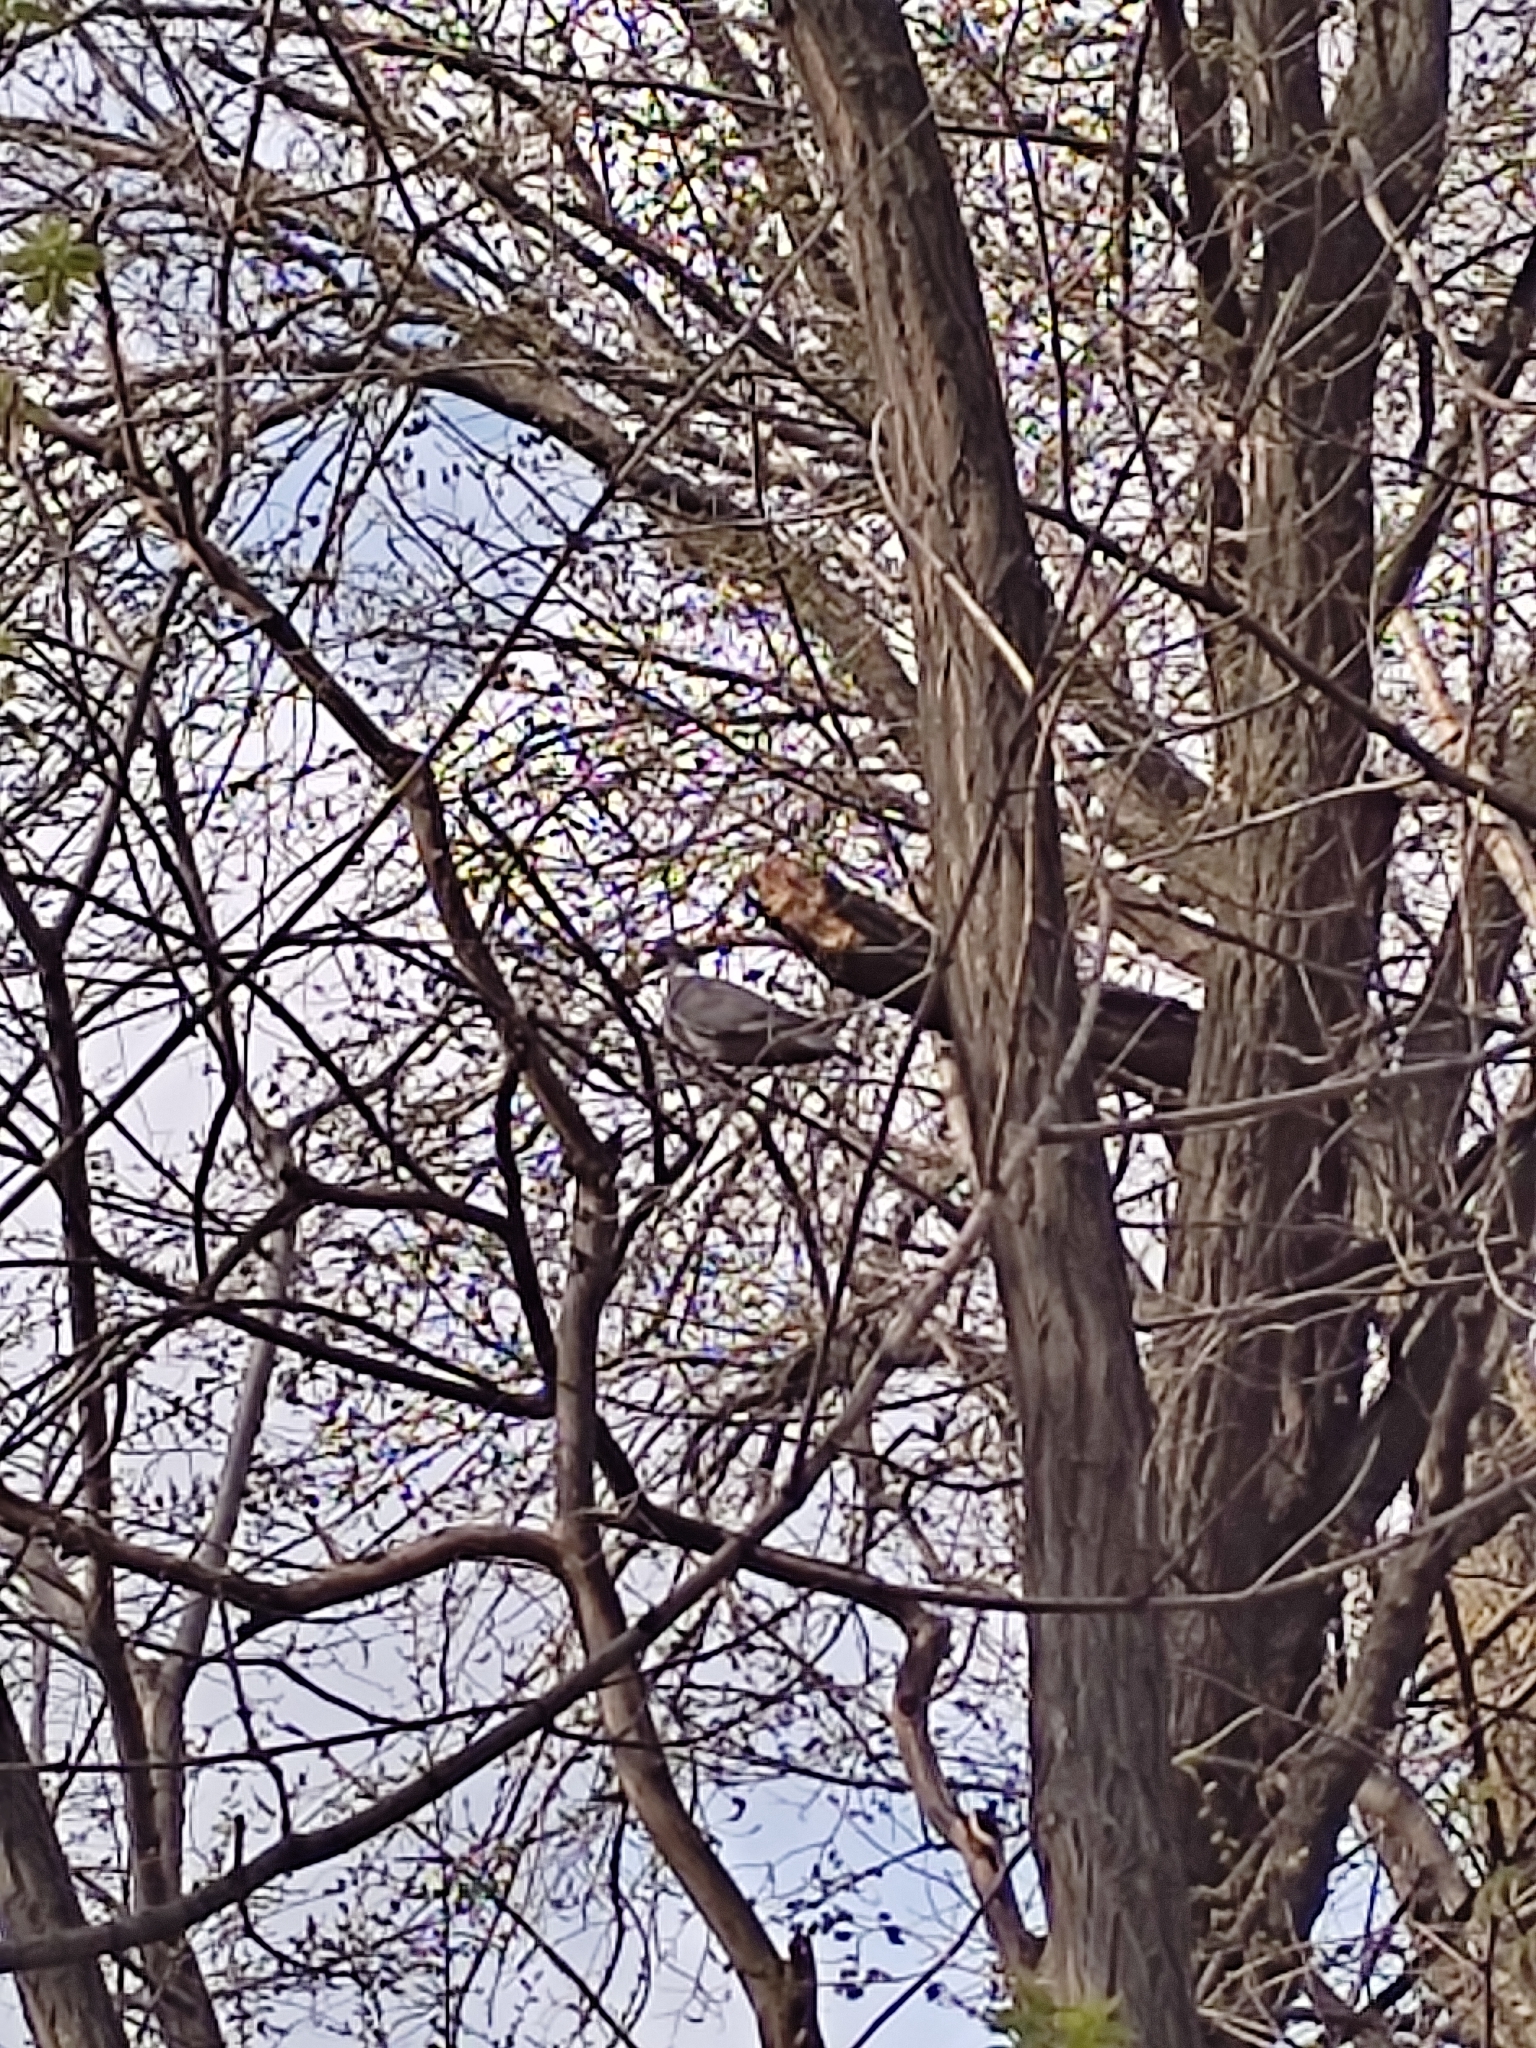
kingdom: Animalia
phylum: Chordata
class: Aves
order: Columbiformes
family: Columbidae
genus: Columba
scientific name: Columba palumbus
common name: Common wood pigeon
